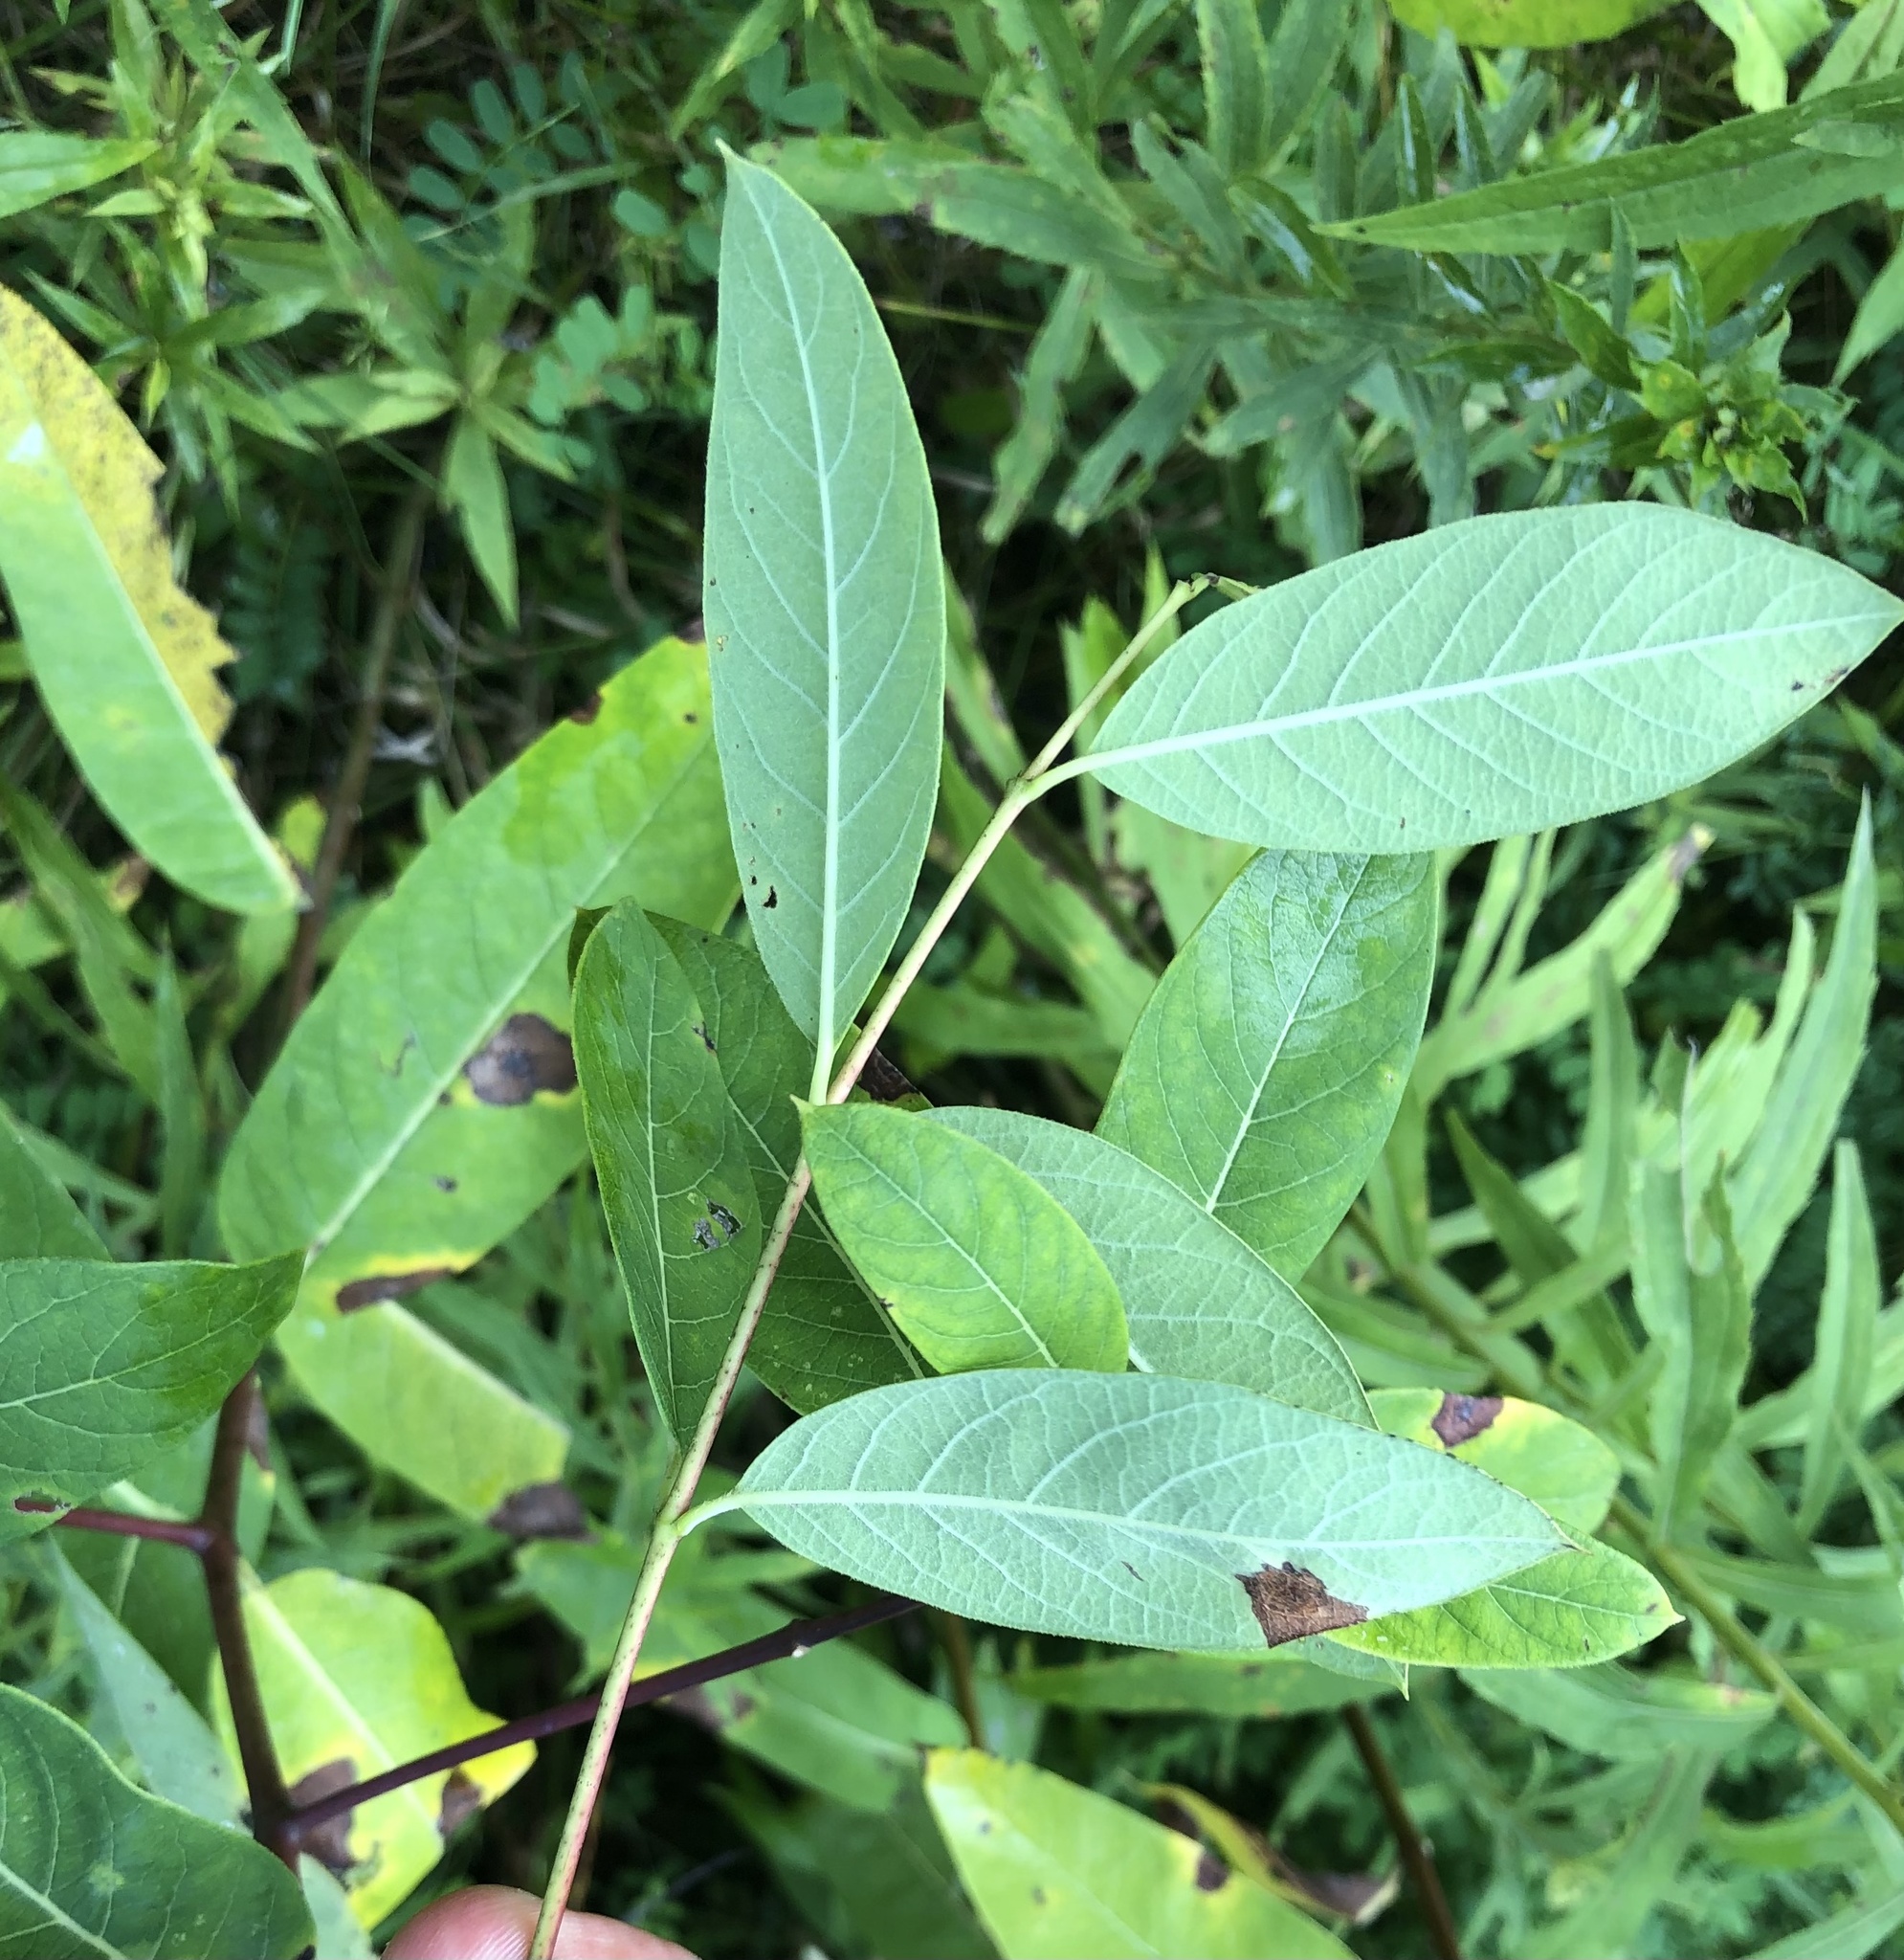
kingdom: Plantae
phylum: Tracheophyta
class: Magnoliopsida
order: Gentianales
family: Apocynaceae
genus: Apocynum
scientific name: Apocynum cannabinum
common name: Hemp dogbane
